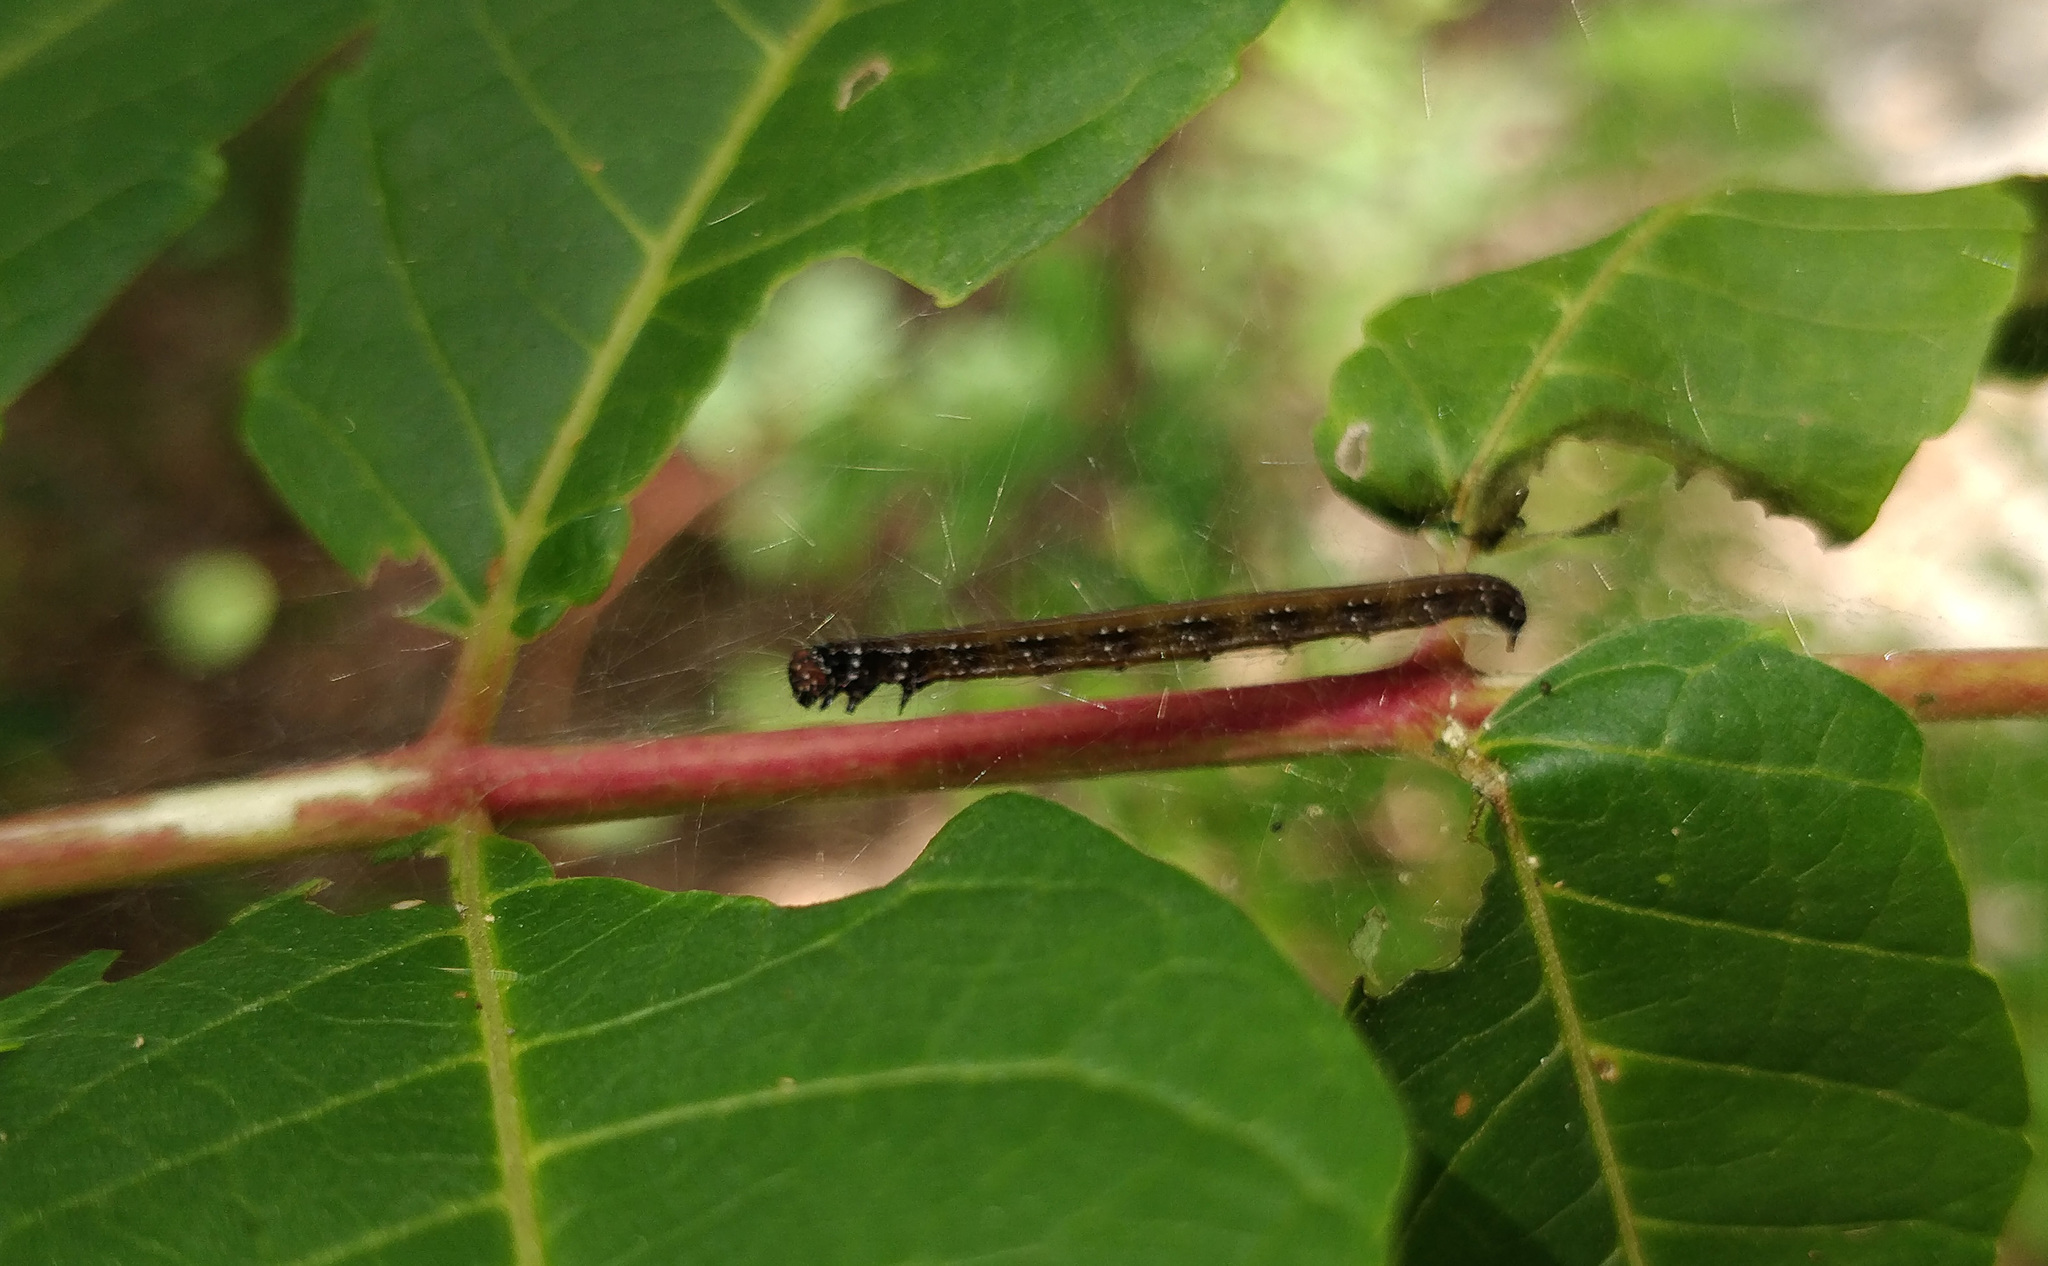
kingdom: Animalia
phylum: Arthropoda
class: Insecta
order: Lepidoptera
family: Attevidae
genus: Atteva
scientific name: Atteva punctella
